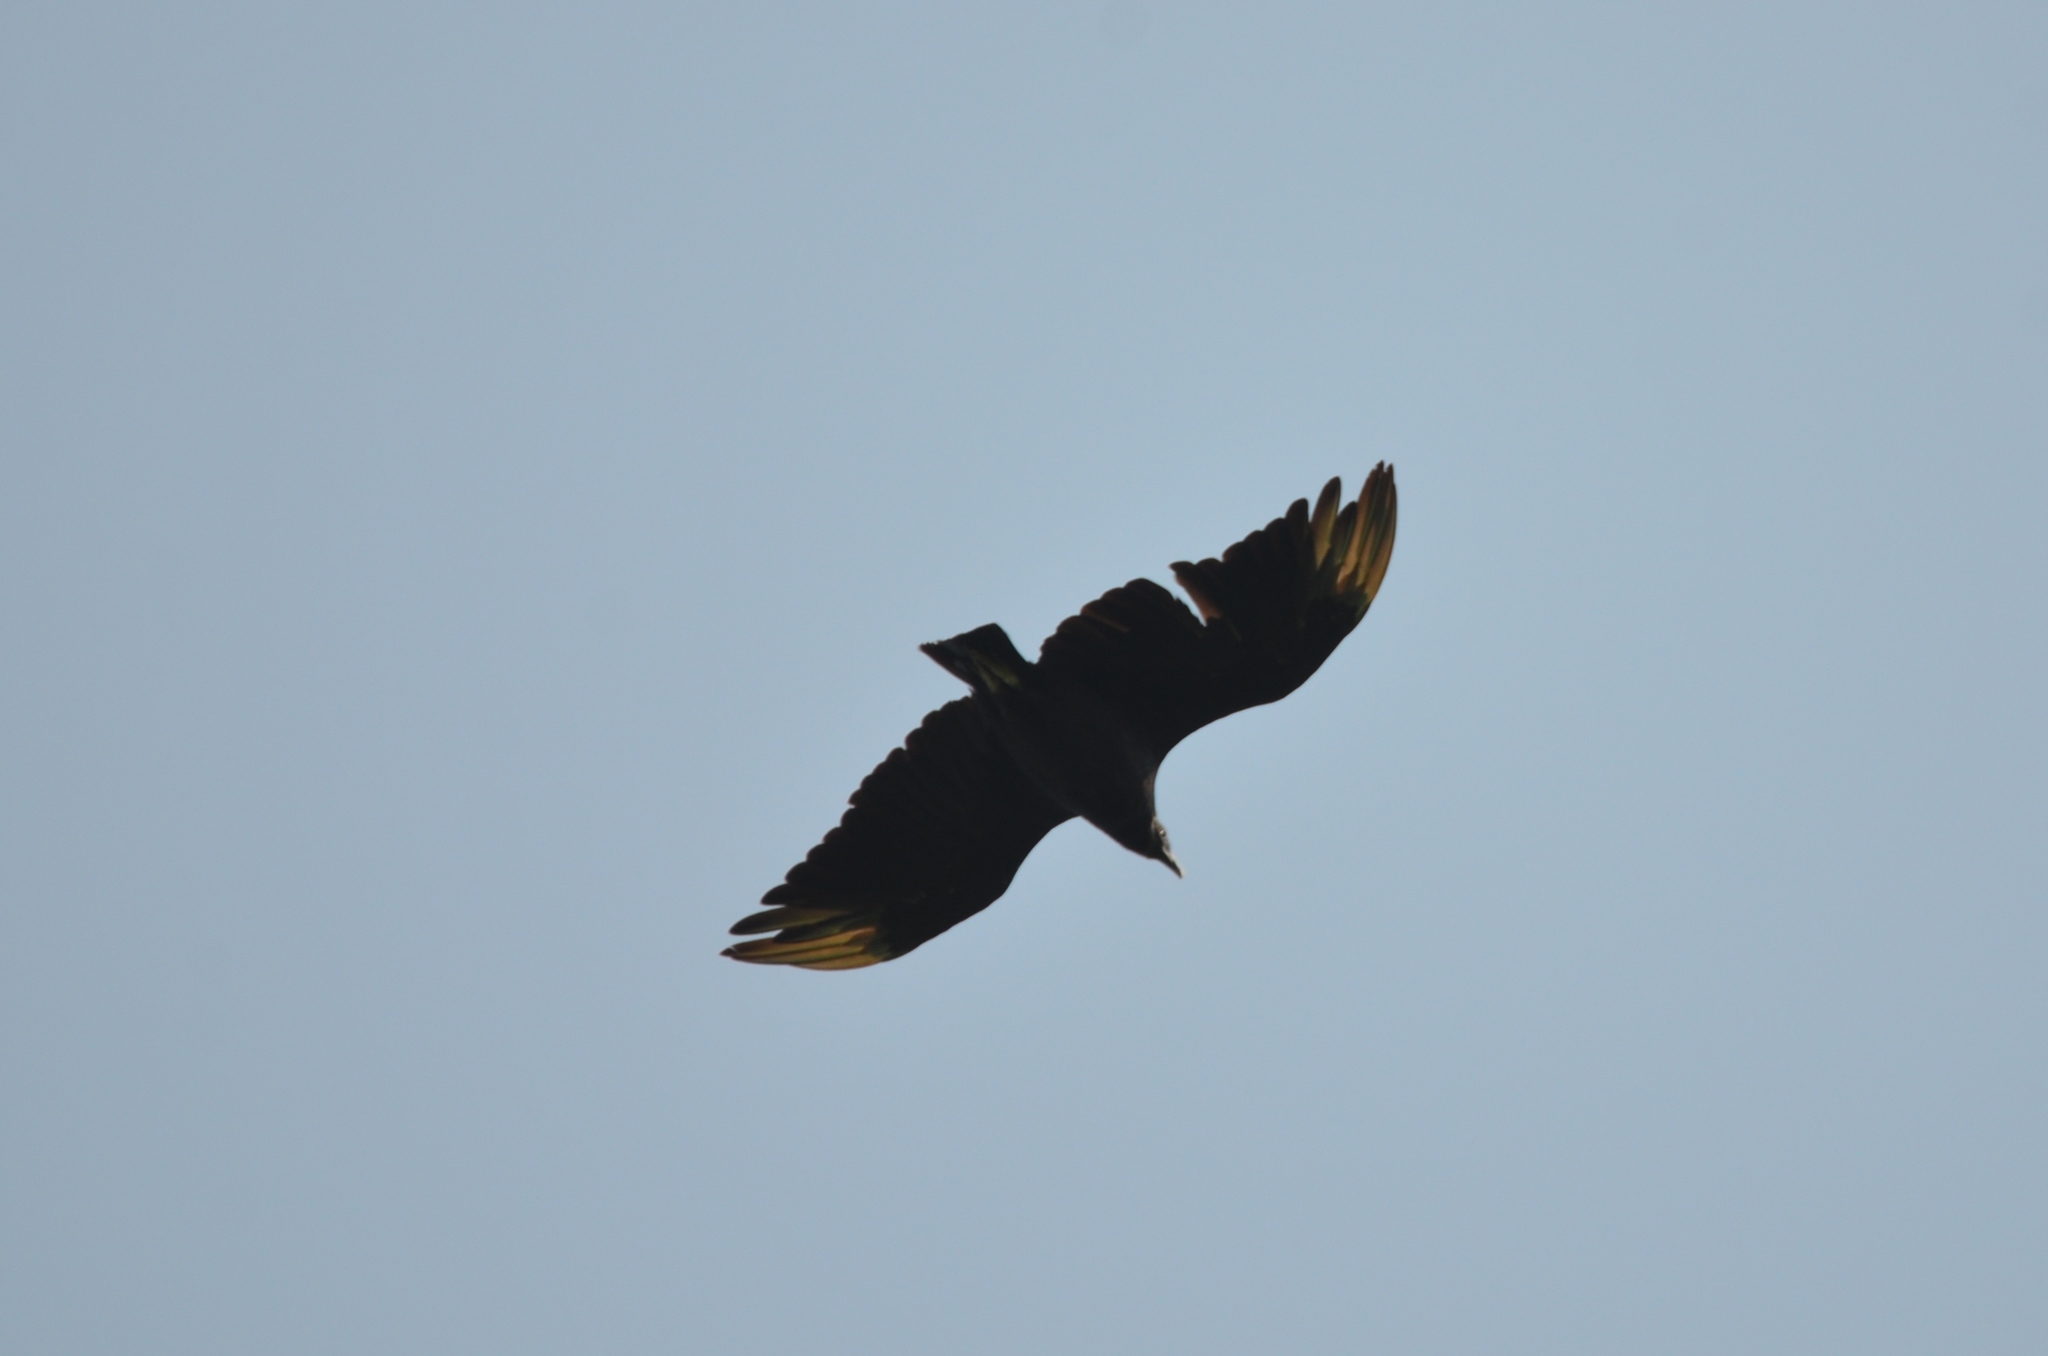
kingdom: Animalia
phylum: Chordata
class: Aves
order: Accipitriformes
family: Cathartidae
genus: Coragyps
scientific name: Coragyps atratus
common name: Black vulture
